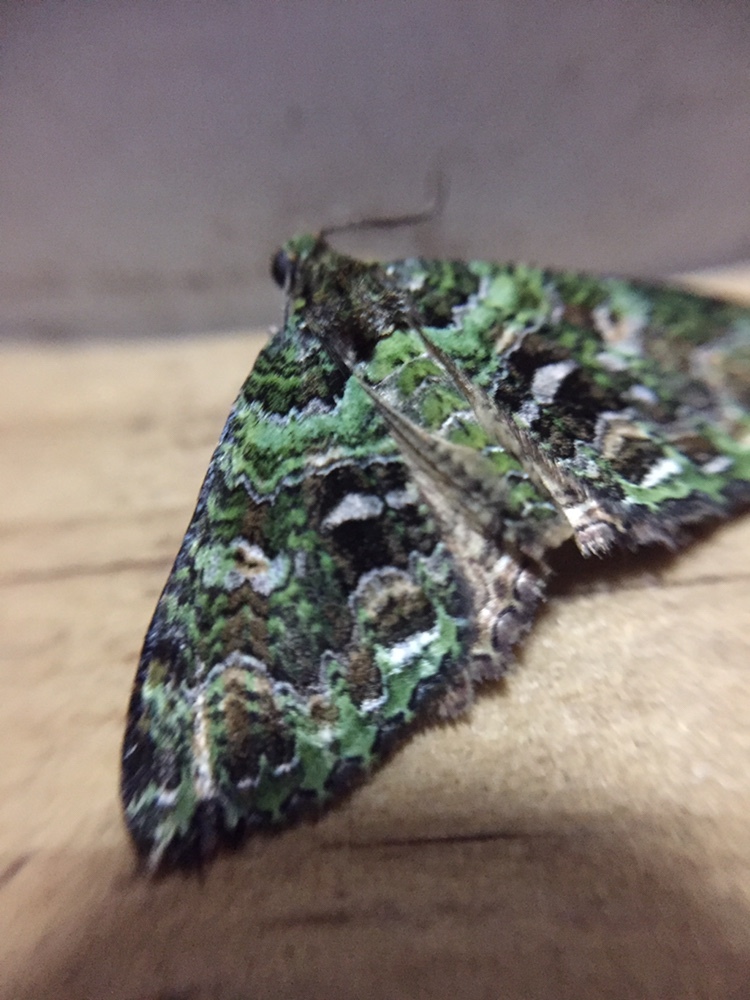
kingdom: Animalia
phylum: Arthropoda
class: Insecta
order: Lepidoptera
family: Geometridae
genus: Austrocidaria
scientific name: Austrocidaria similata
